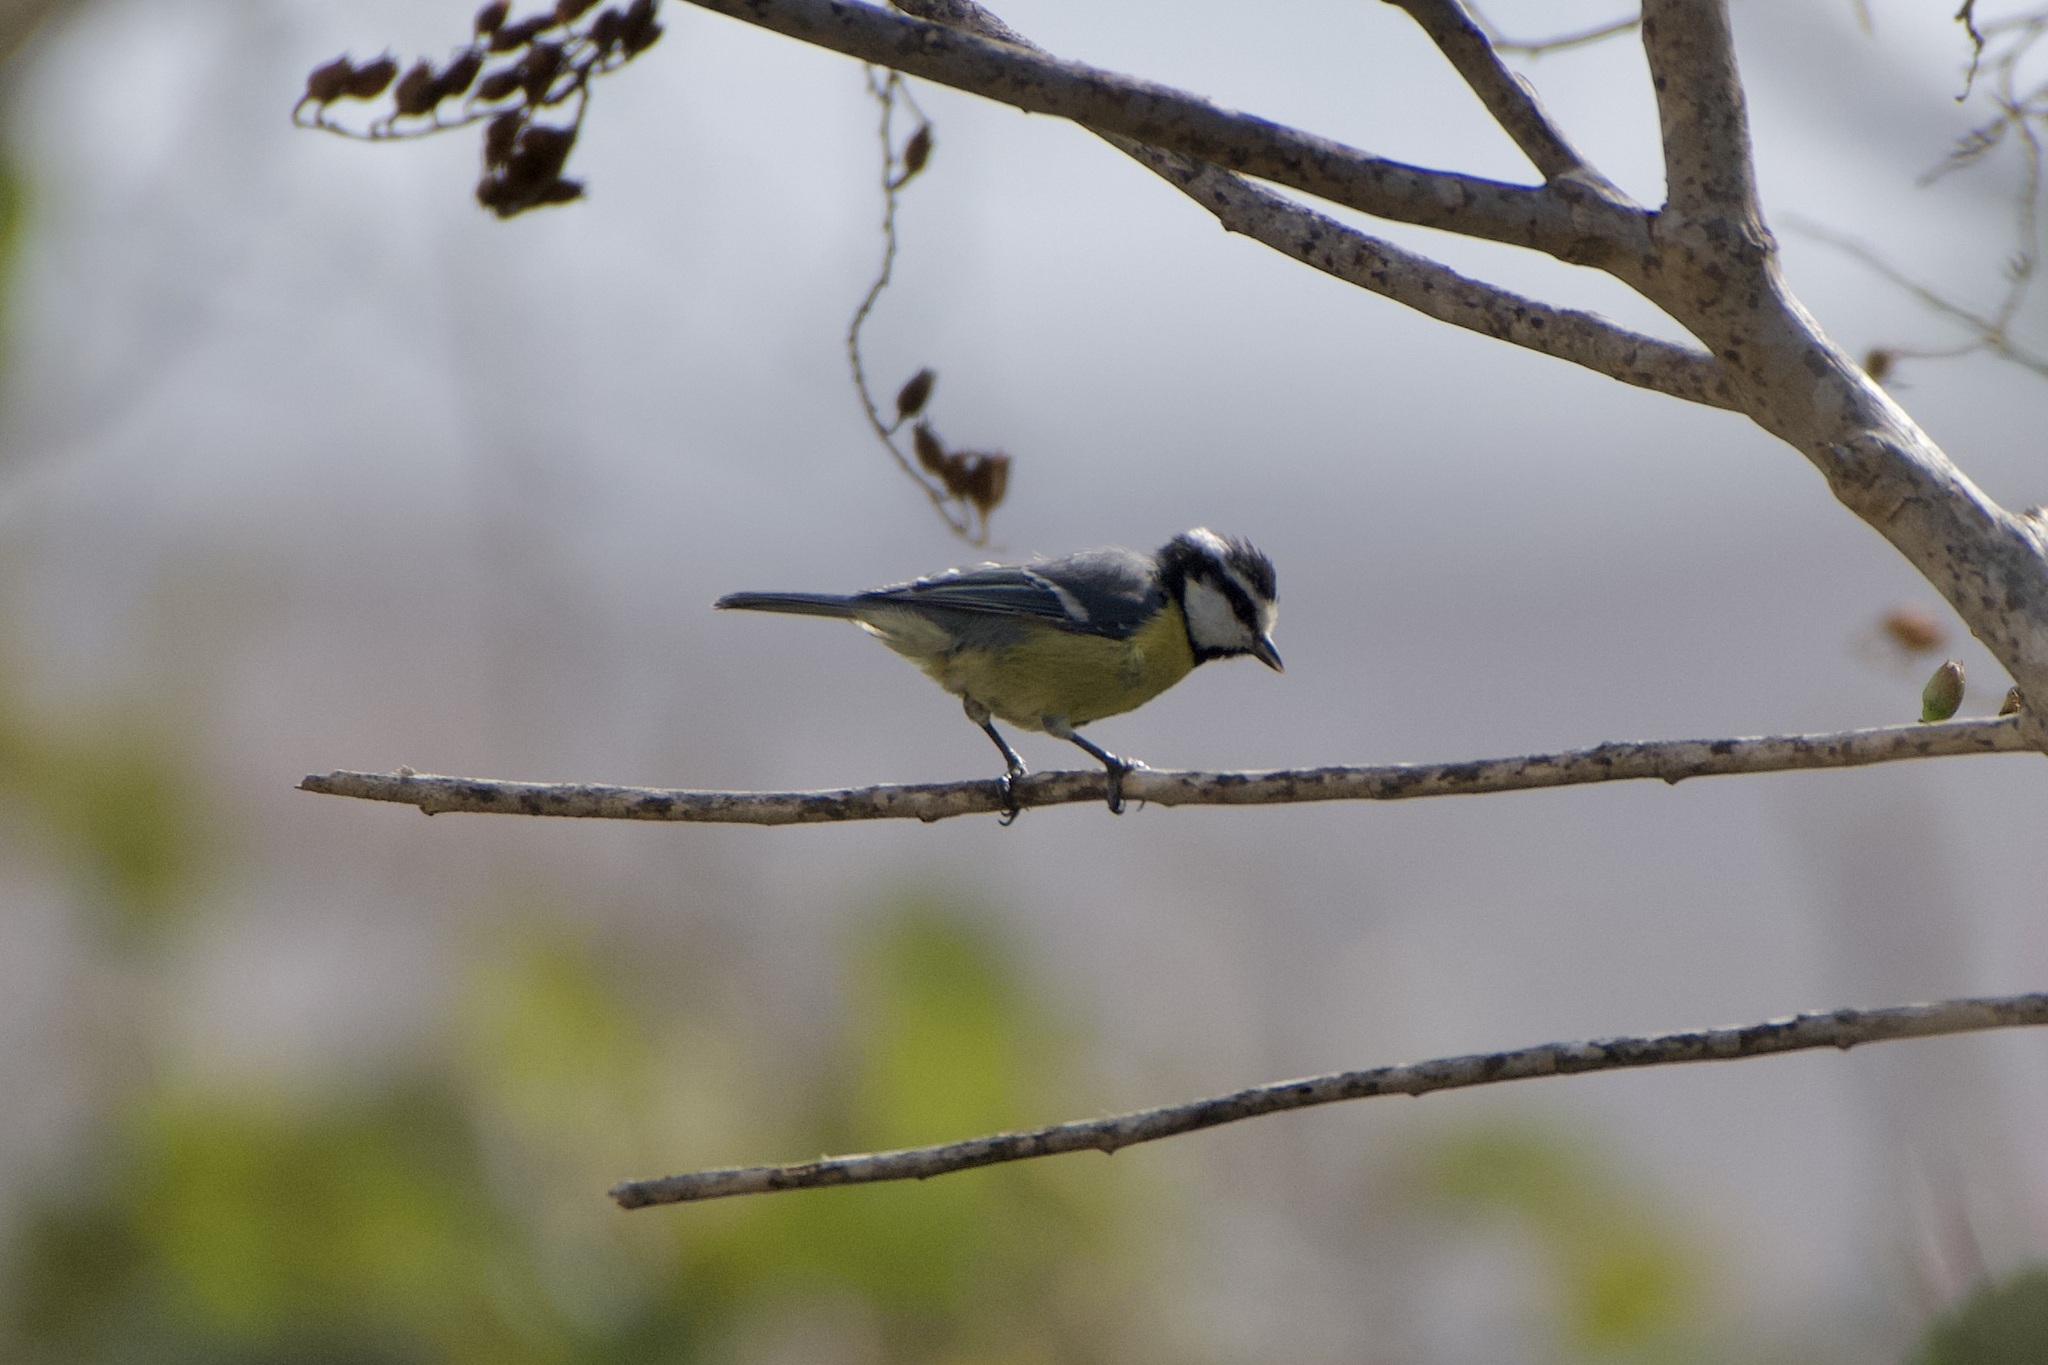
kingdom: Animalia
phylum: Chordata
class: Aves
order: Passeriformes
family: Paridae
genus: Cyanistes
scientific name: Cyanistes teneriffae
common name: African blue tit
